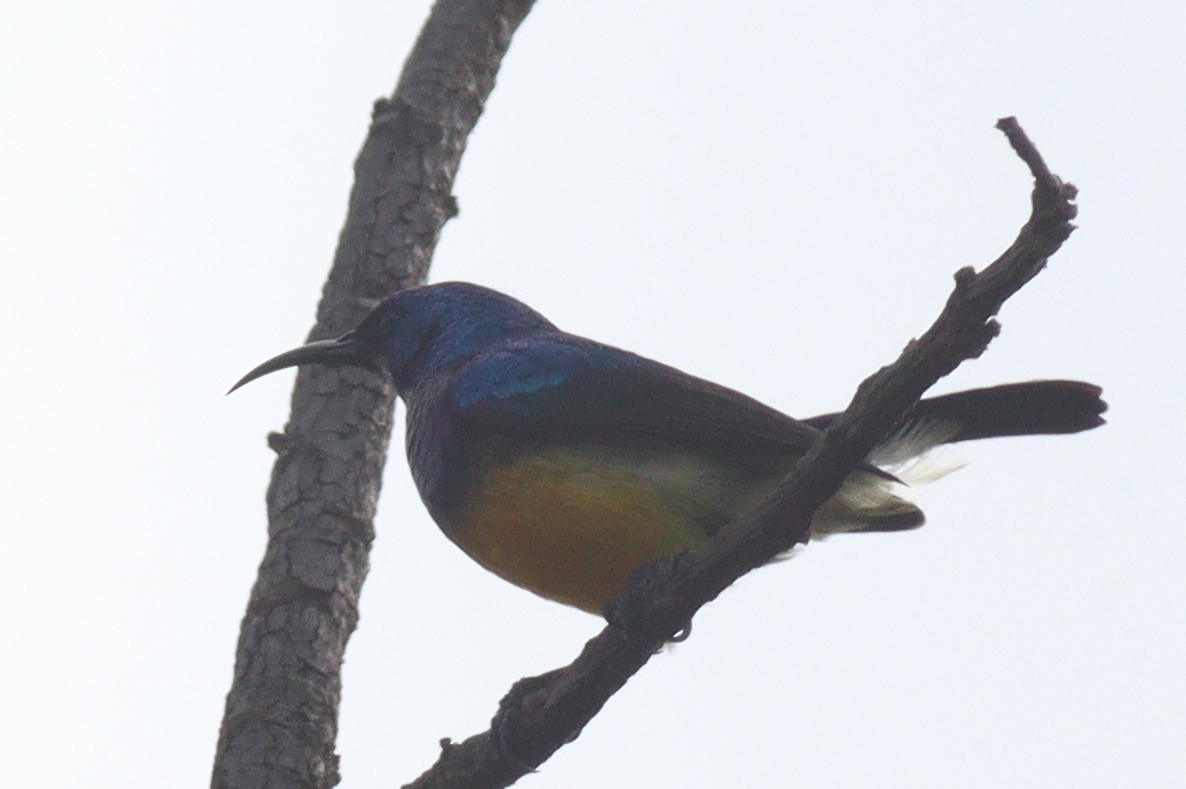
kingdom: Animalia
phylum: Chordata
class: Aves
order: Passeriformes
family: Nectariniidae
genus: Cinnyris
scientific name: Cinnyris venustus
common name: Variable sunbird
